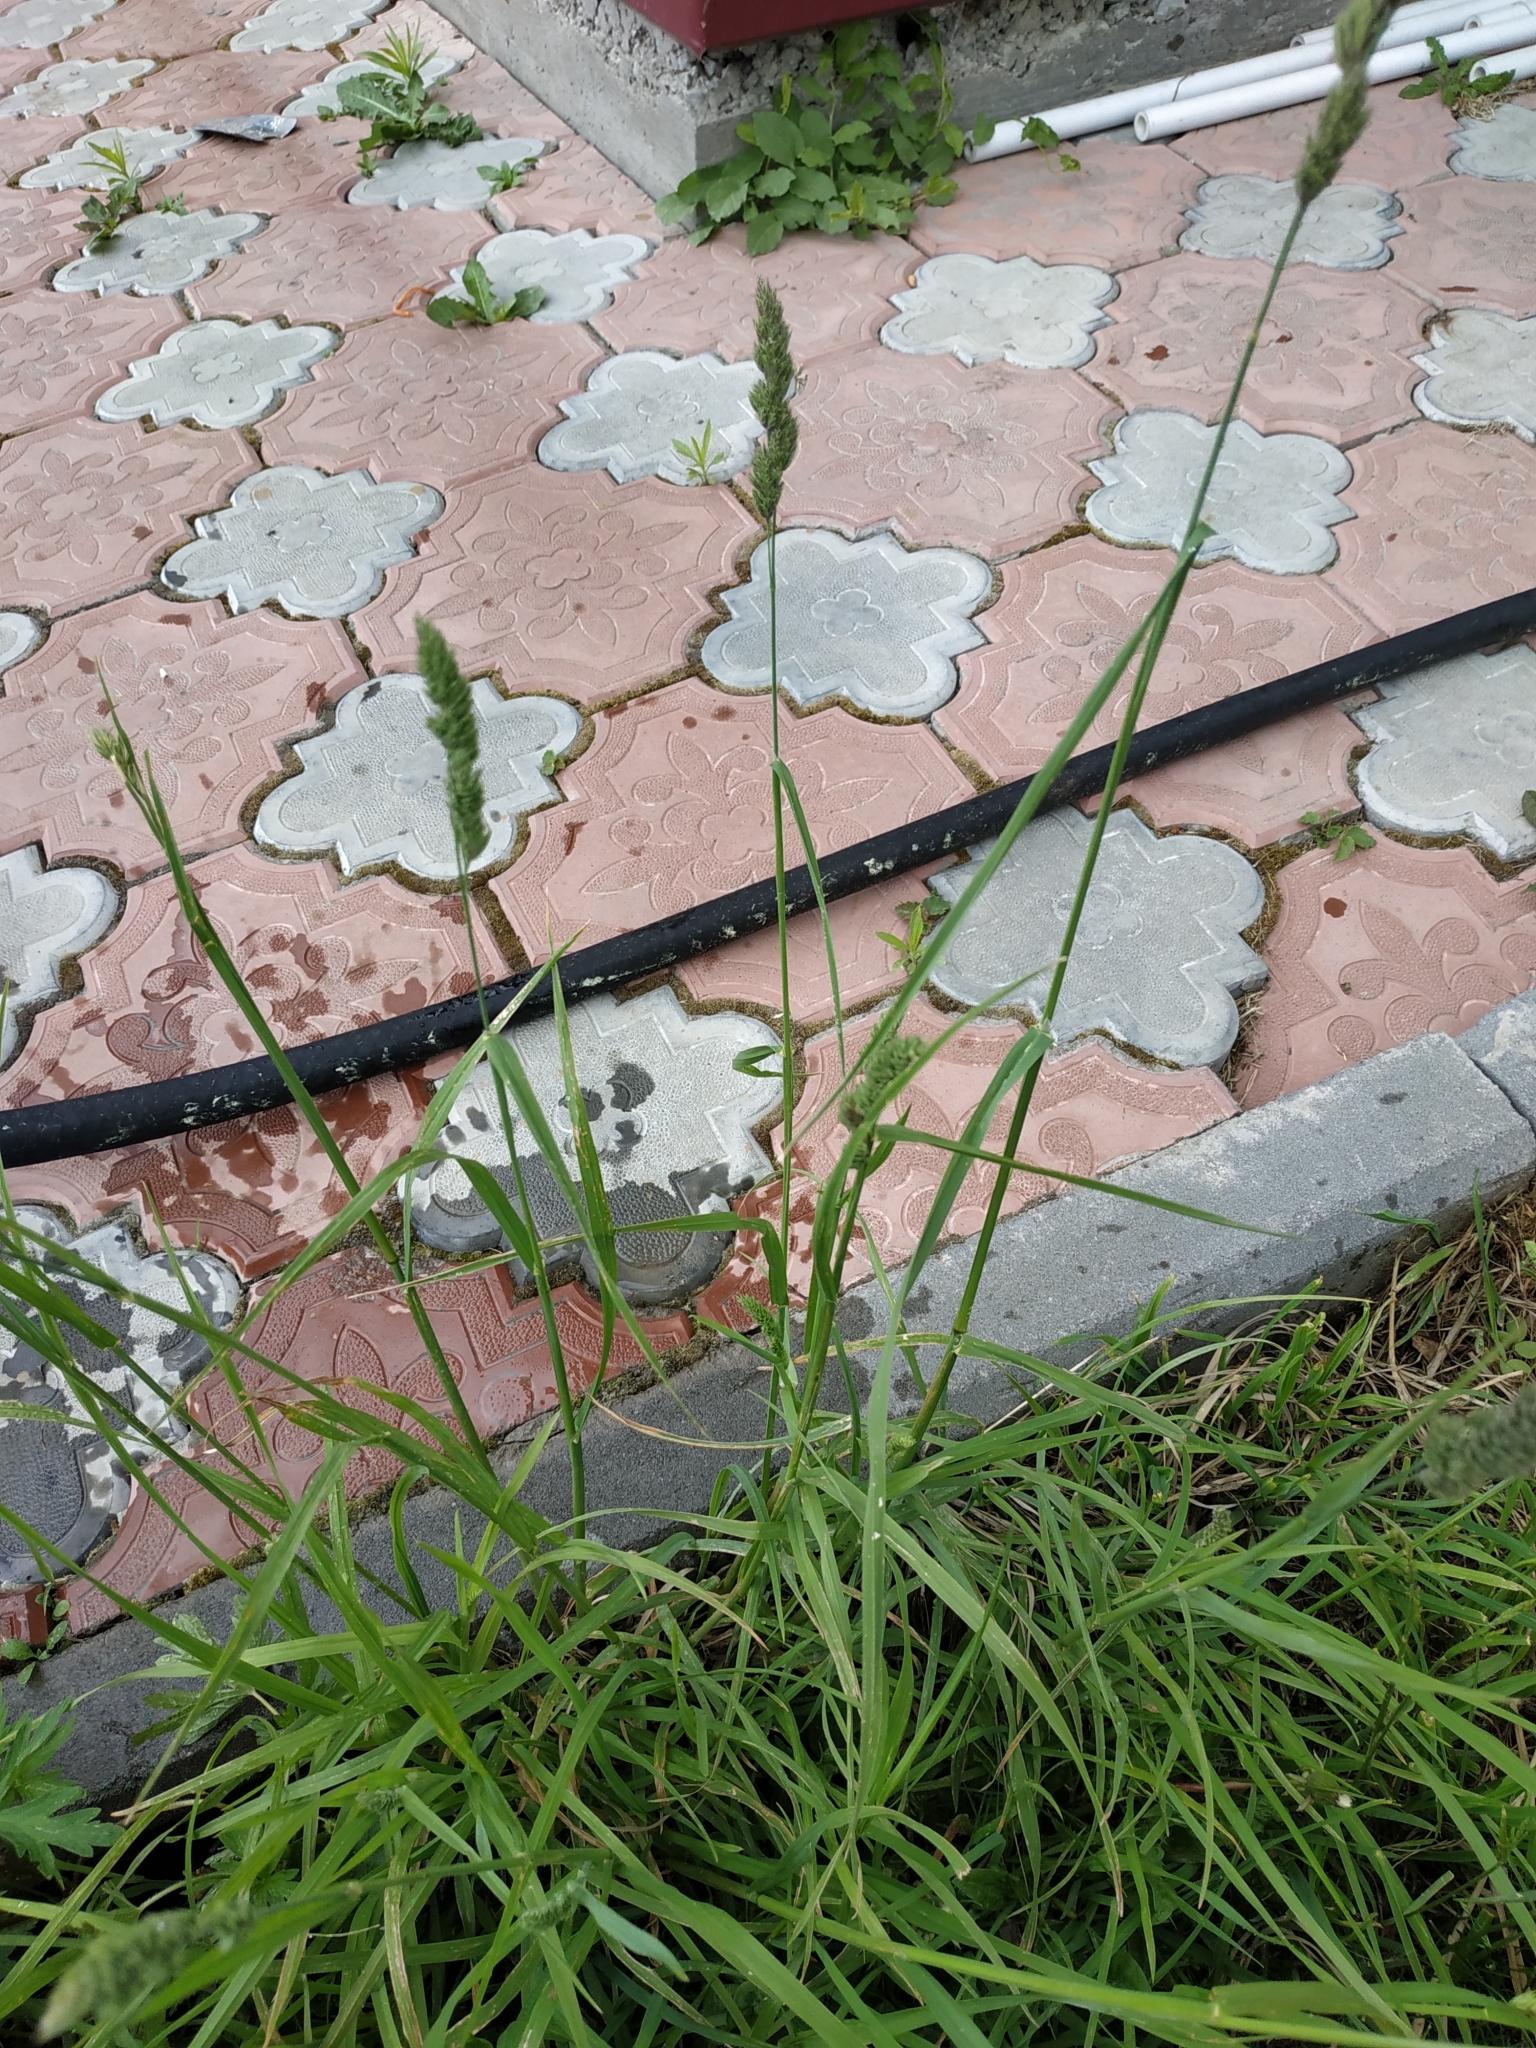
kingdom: Plantae
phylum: Tracheophyta
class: Liliopsida
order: Poales
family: Poaceae
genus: Dactylis
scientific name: Dactylis glomerata
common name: Orchardgrass
